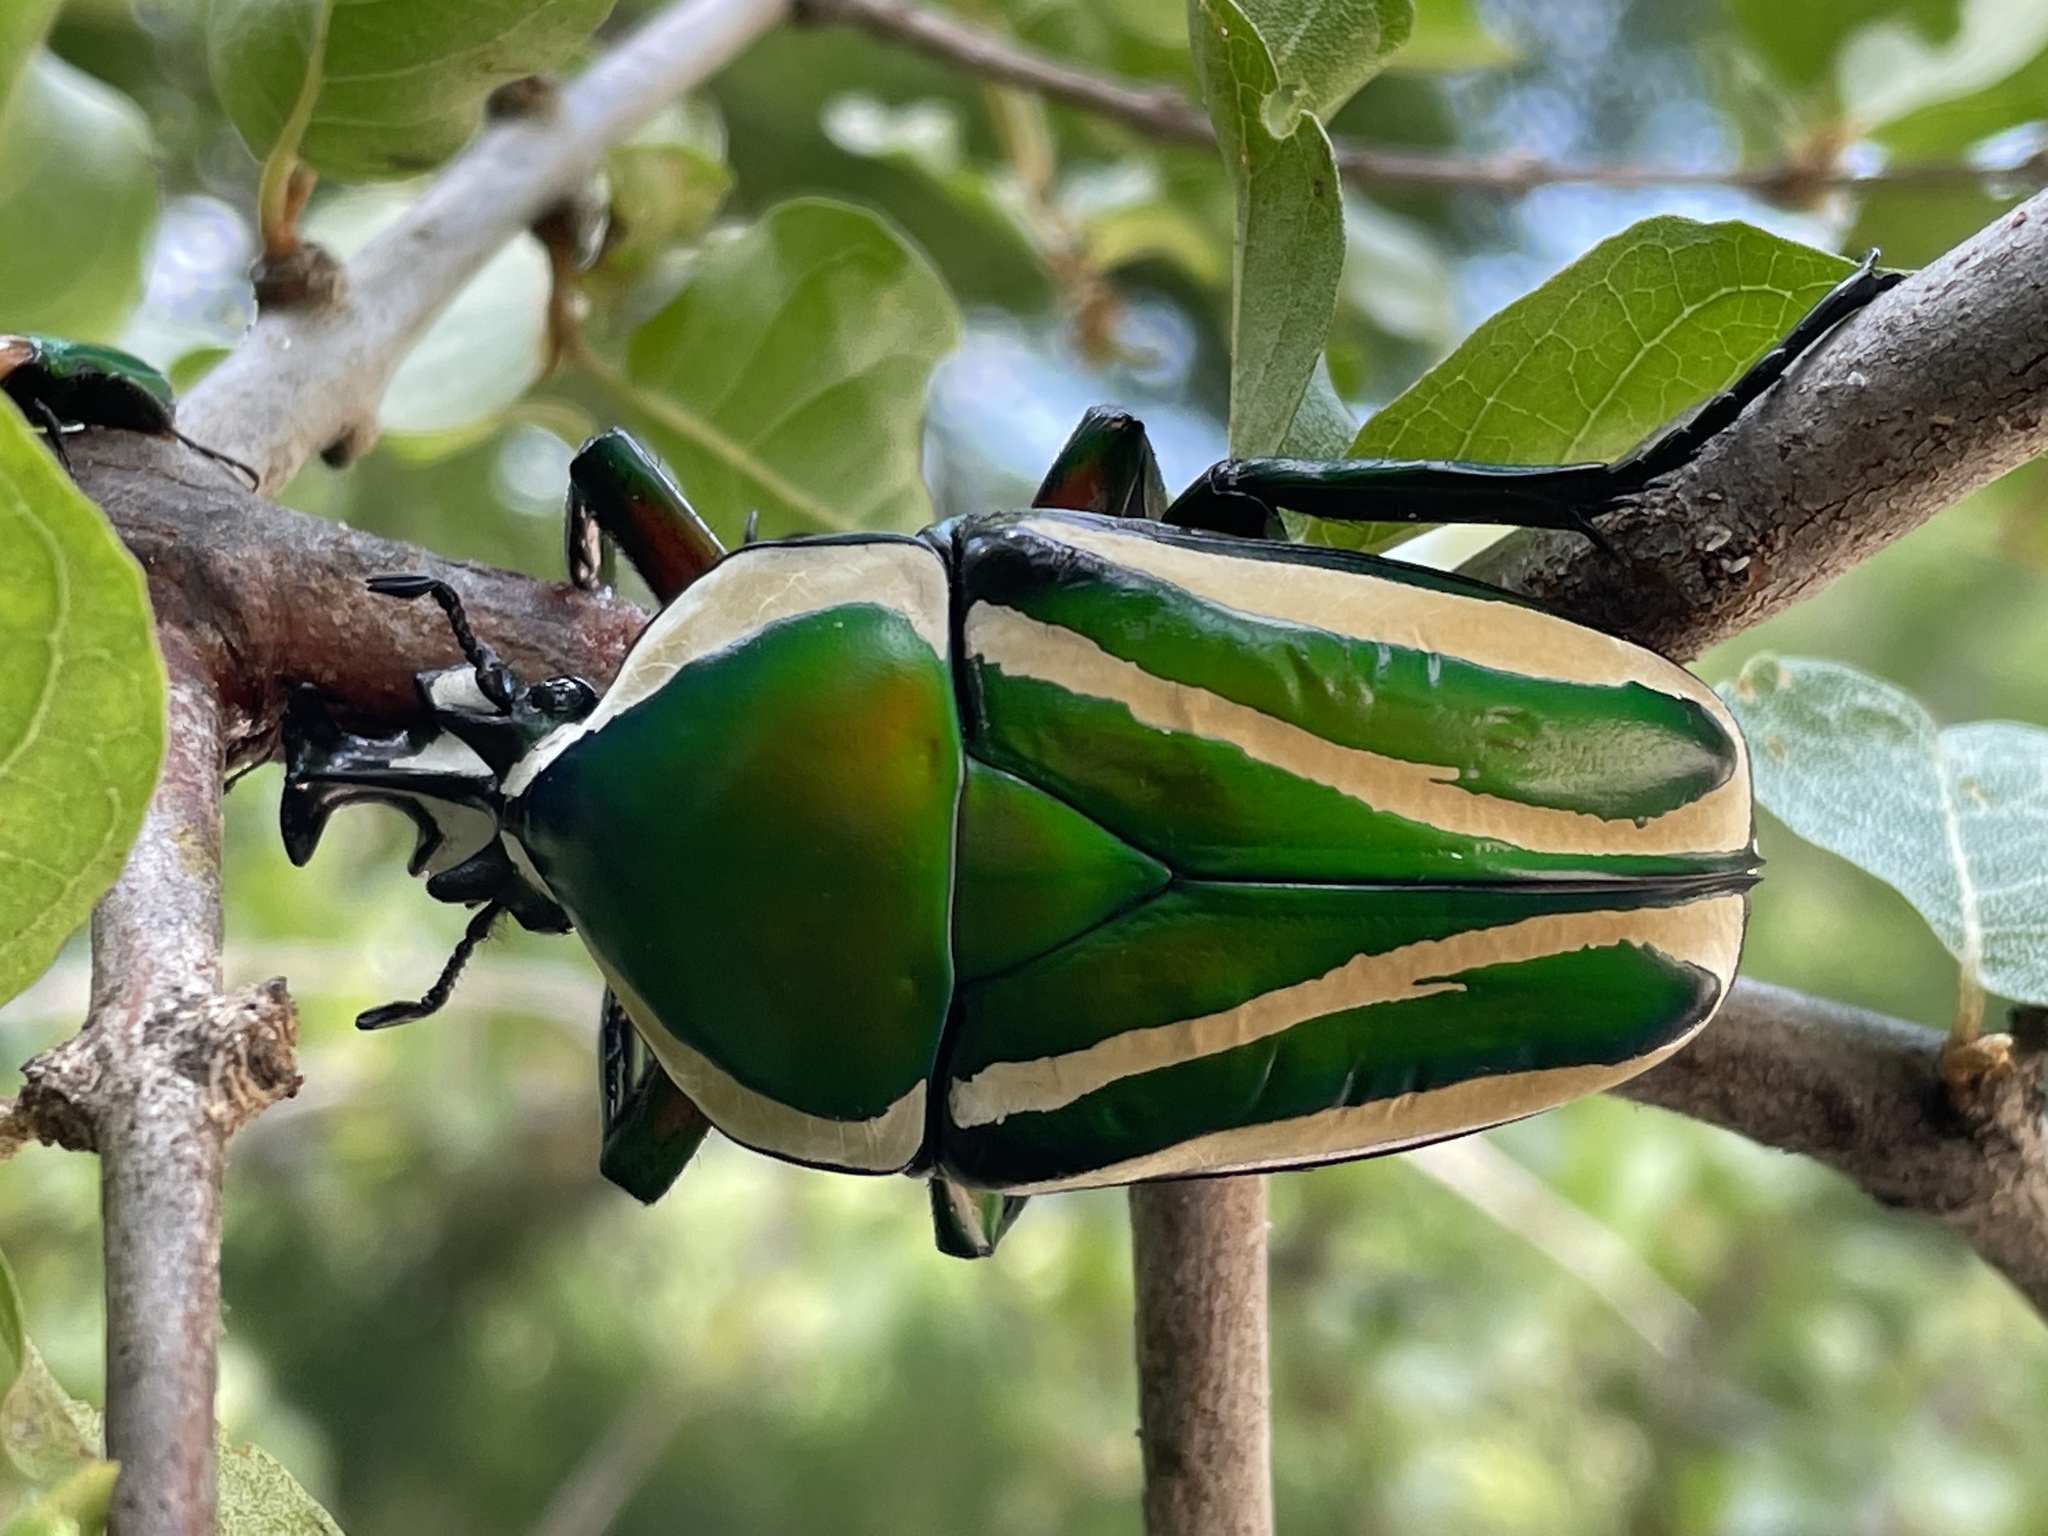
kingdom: Animalia
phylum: Arthropoda
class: Insecta
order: Coleoptera
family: Scarabaeidae
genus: Dicronorhina
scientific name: Dicronorhina derbyana
